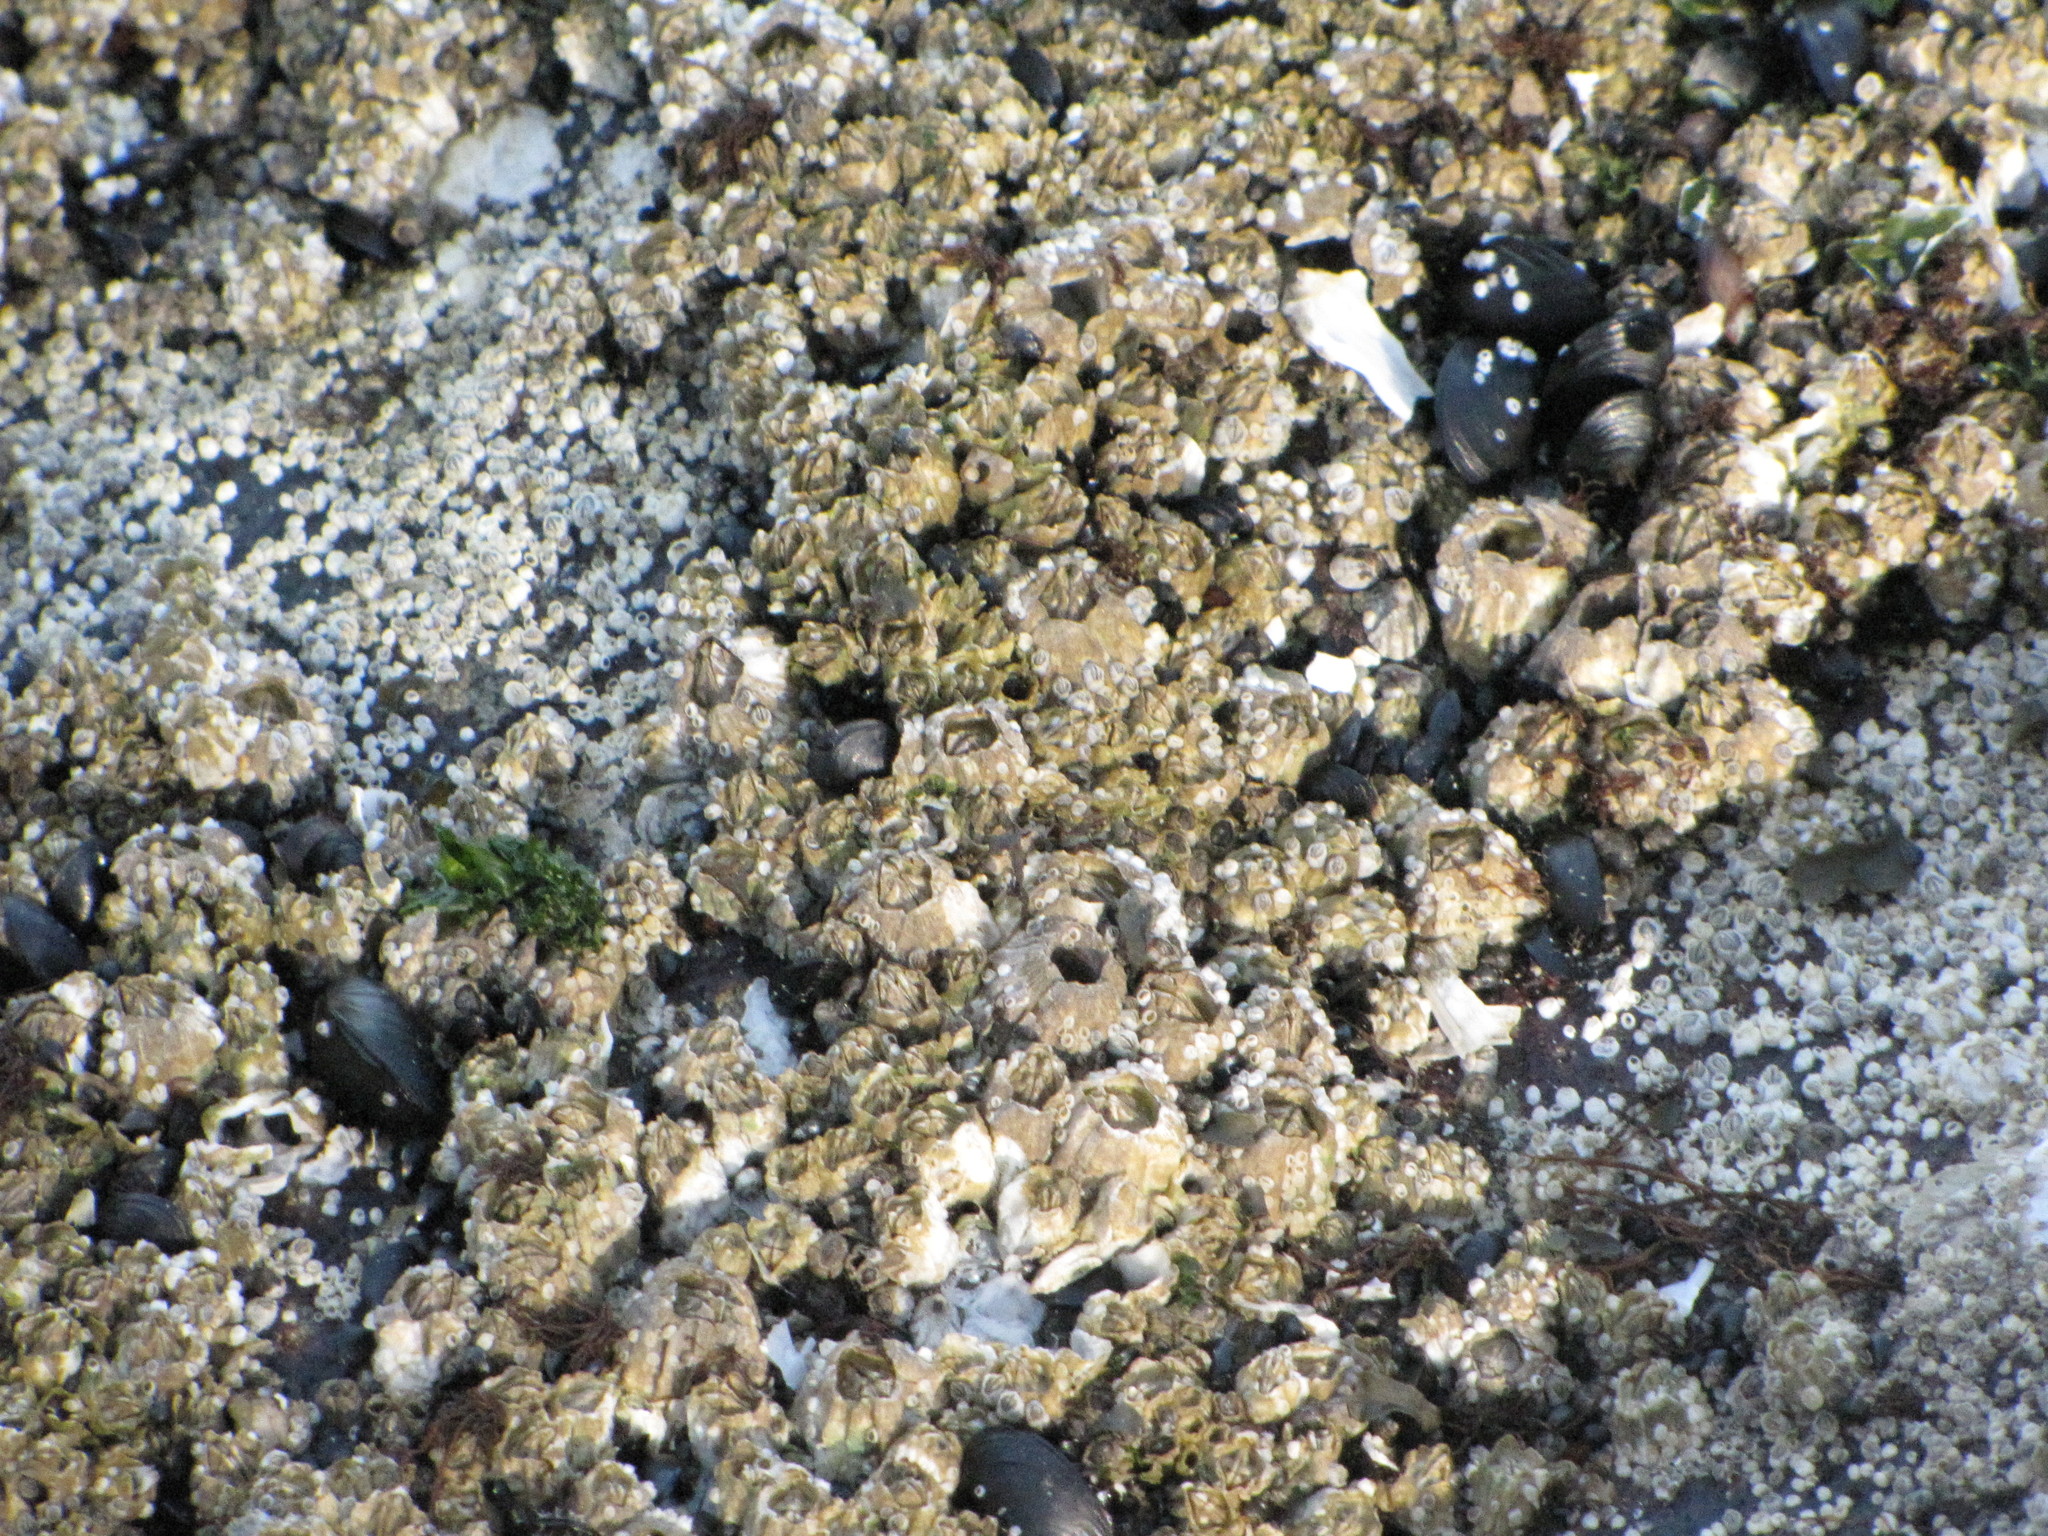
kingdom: Animalia
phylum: Arthropoda
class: Maxillopoda
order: Sessilia
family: Balanidae
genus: Balanus
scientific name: Balanus glandula
